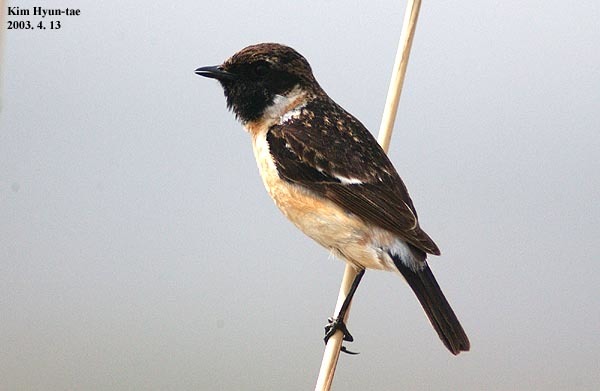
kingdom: Animalia
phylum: Chordata
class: Aves
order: Passeriformes
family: Muscicapidae
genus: Saxicola
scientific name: Saxicola stejnegeri
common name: Stejneger's stonechat
